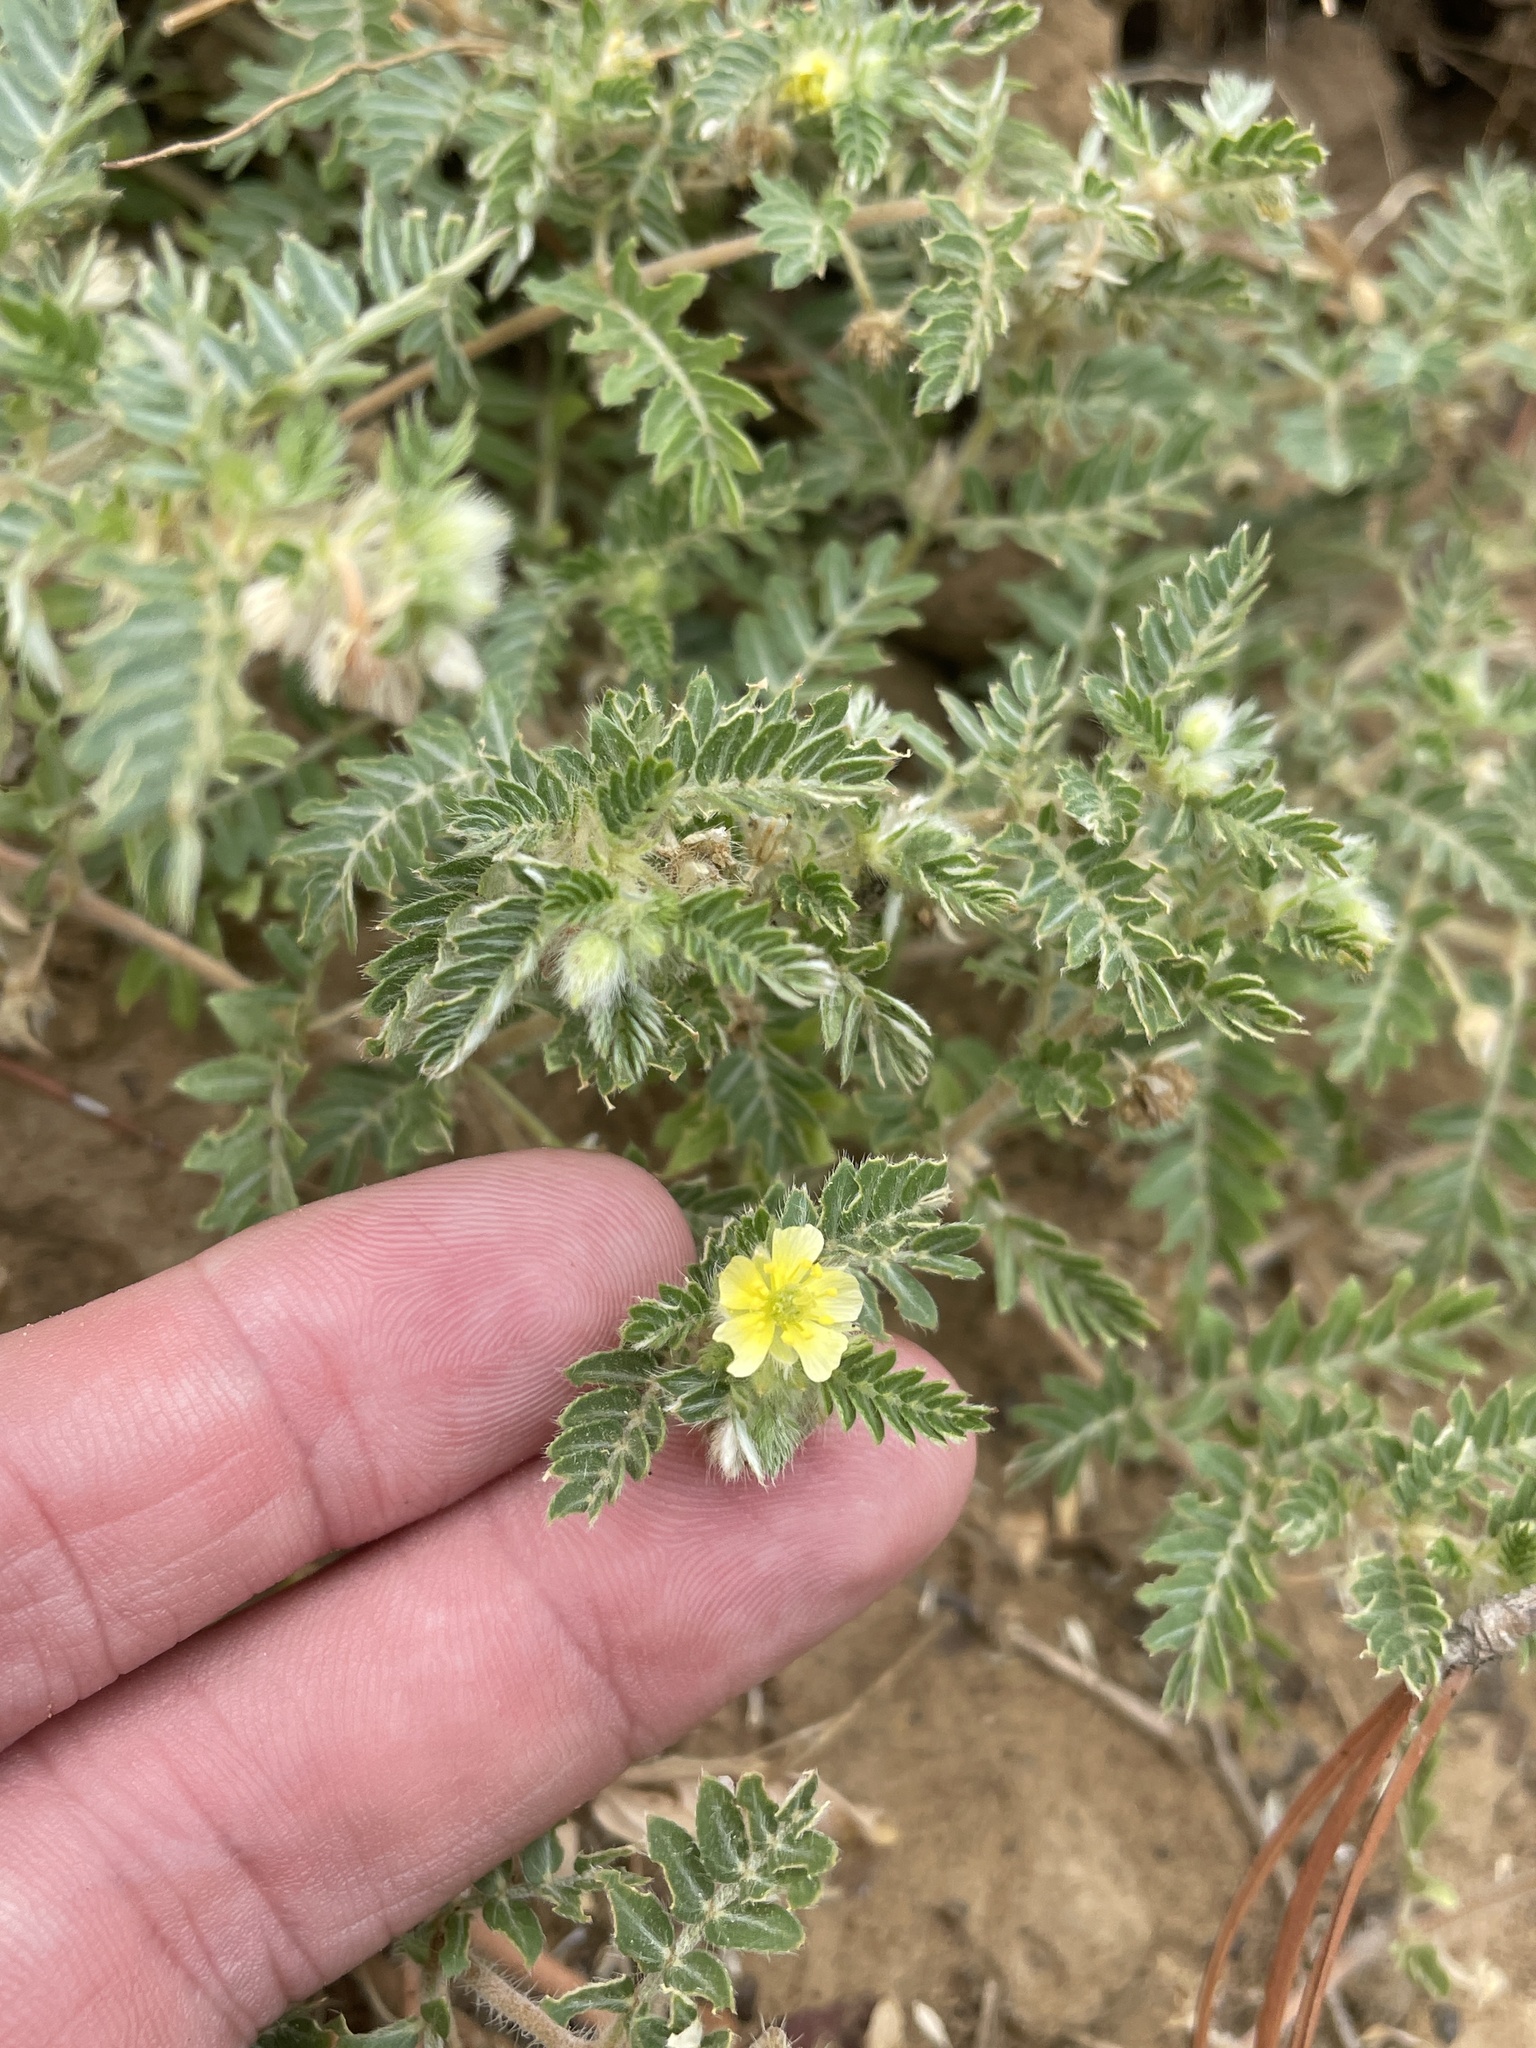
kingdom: Plantae
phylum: Tracheophyta
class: Magnoliopsida
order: Zygophyllales
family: Zygophyllaceae
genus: Tribulus
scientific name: Tribulus terrestris
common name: Puncturevine
